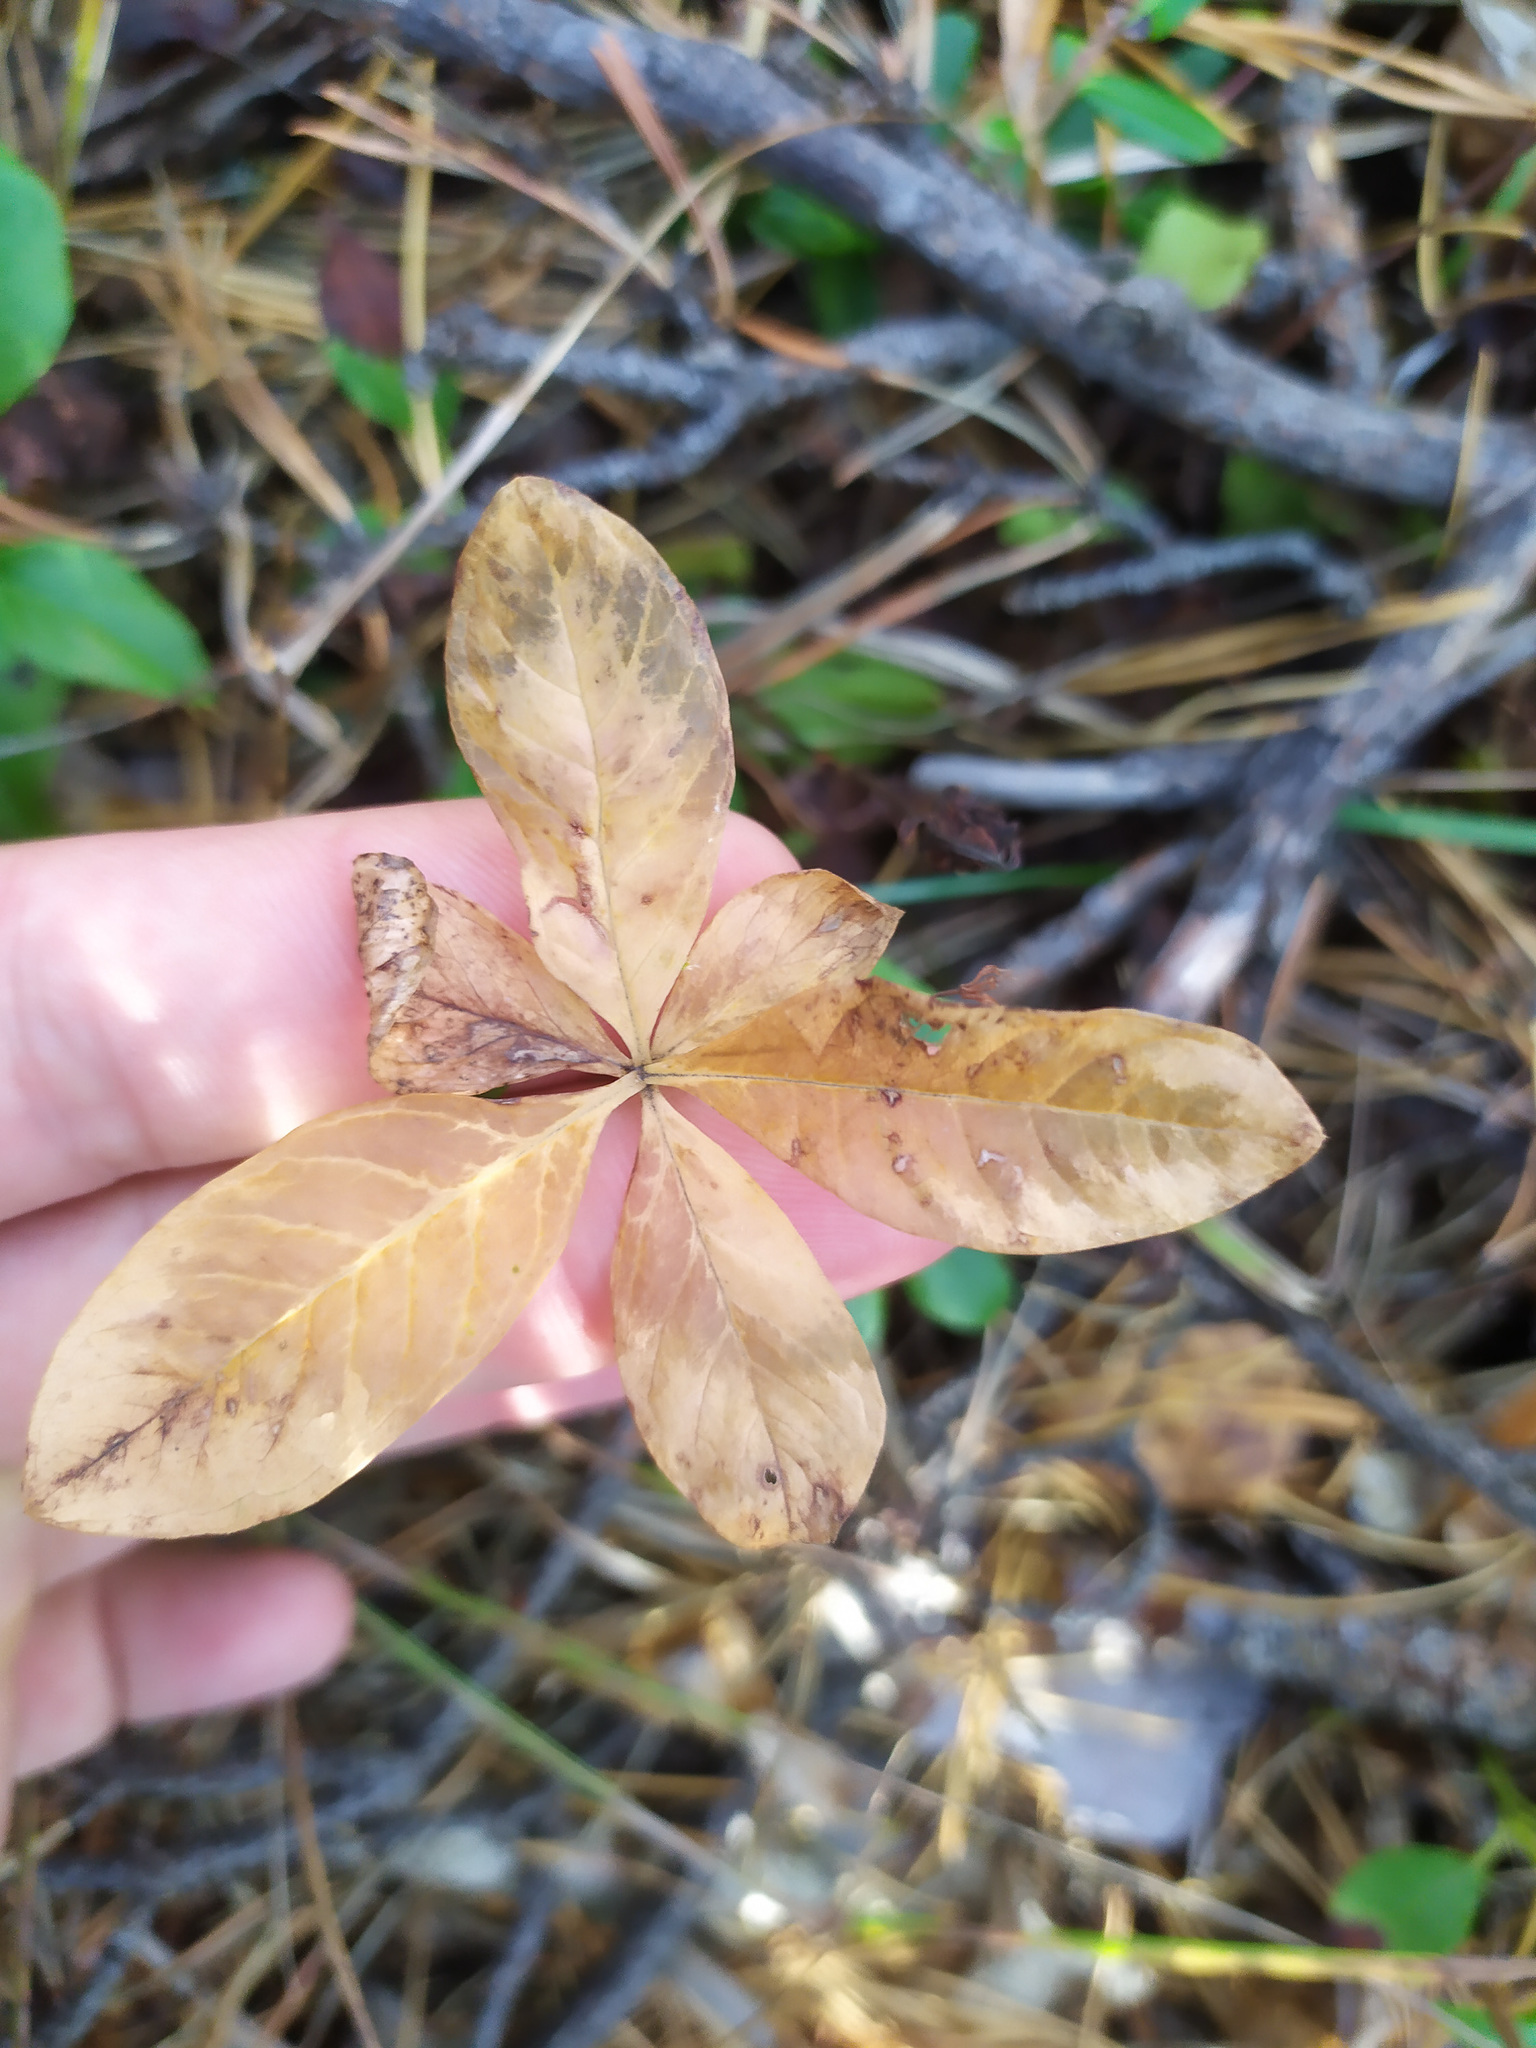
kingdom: Plantae
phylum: Tracheophyta
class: Magnoliopsida
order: Ericales
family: Primulaceae
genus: Lysimachia
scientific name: Lysimachia europaea
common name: Arctic starflower
